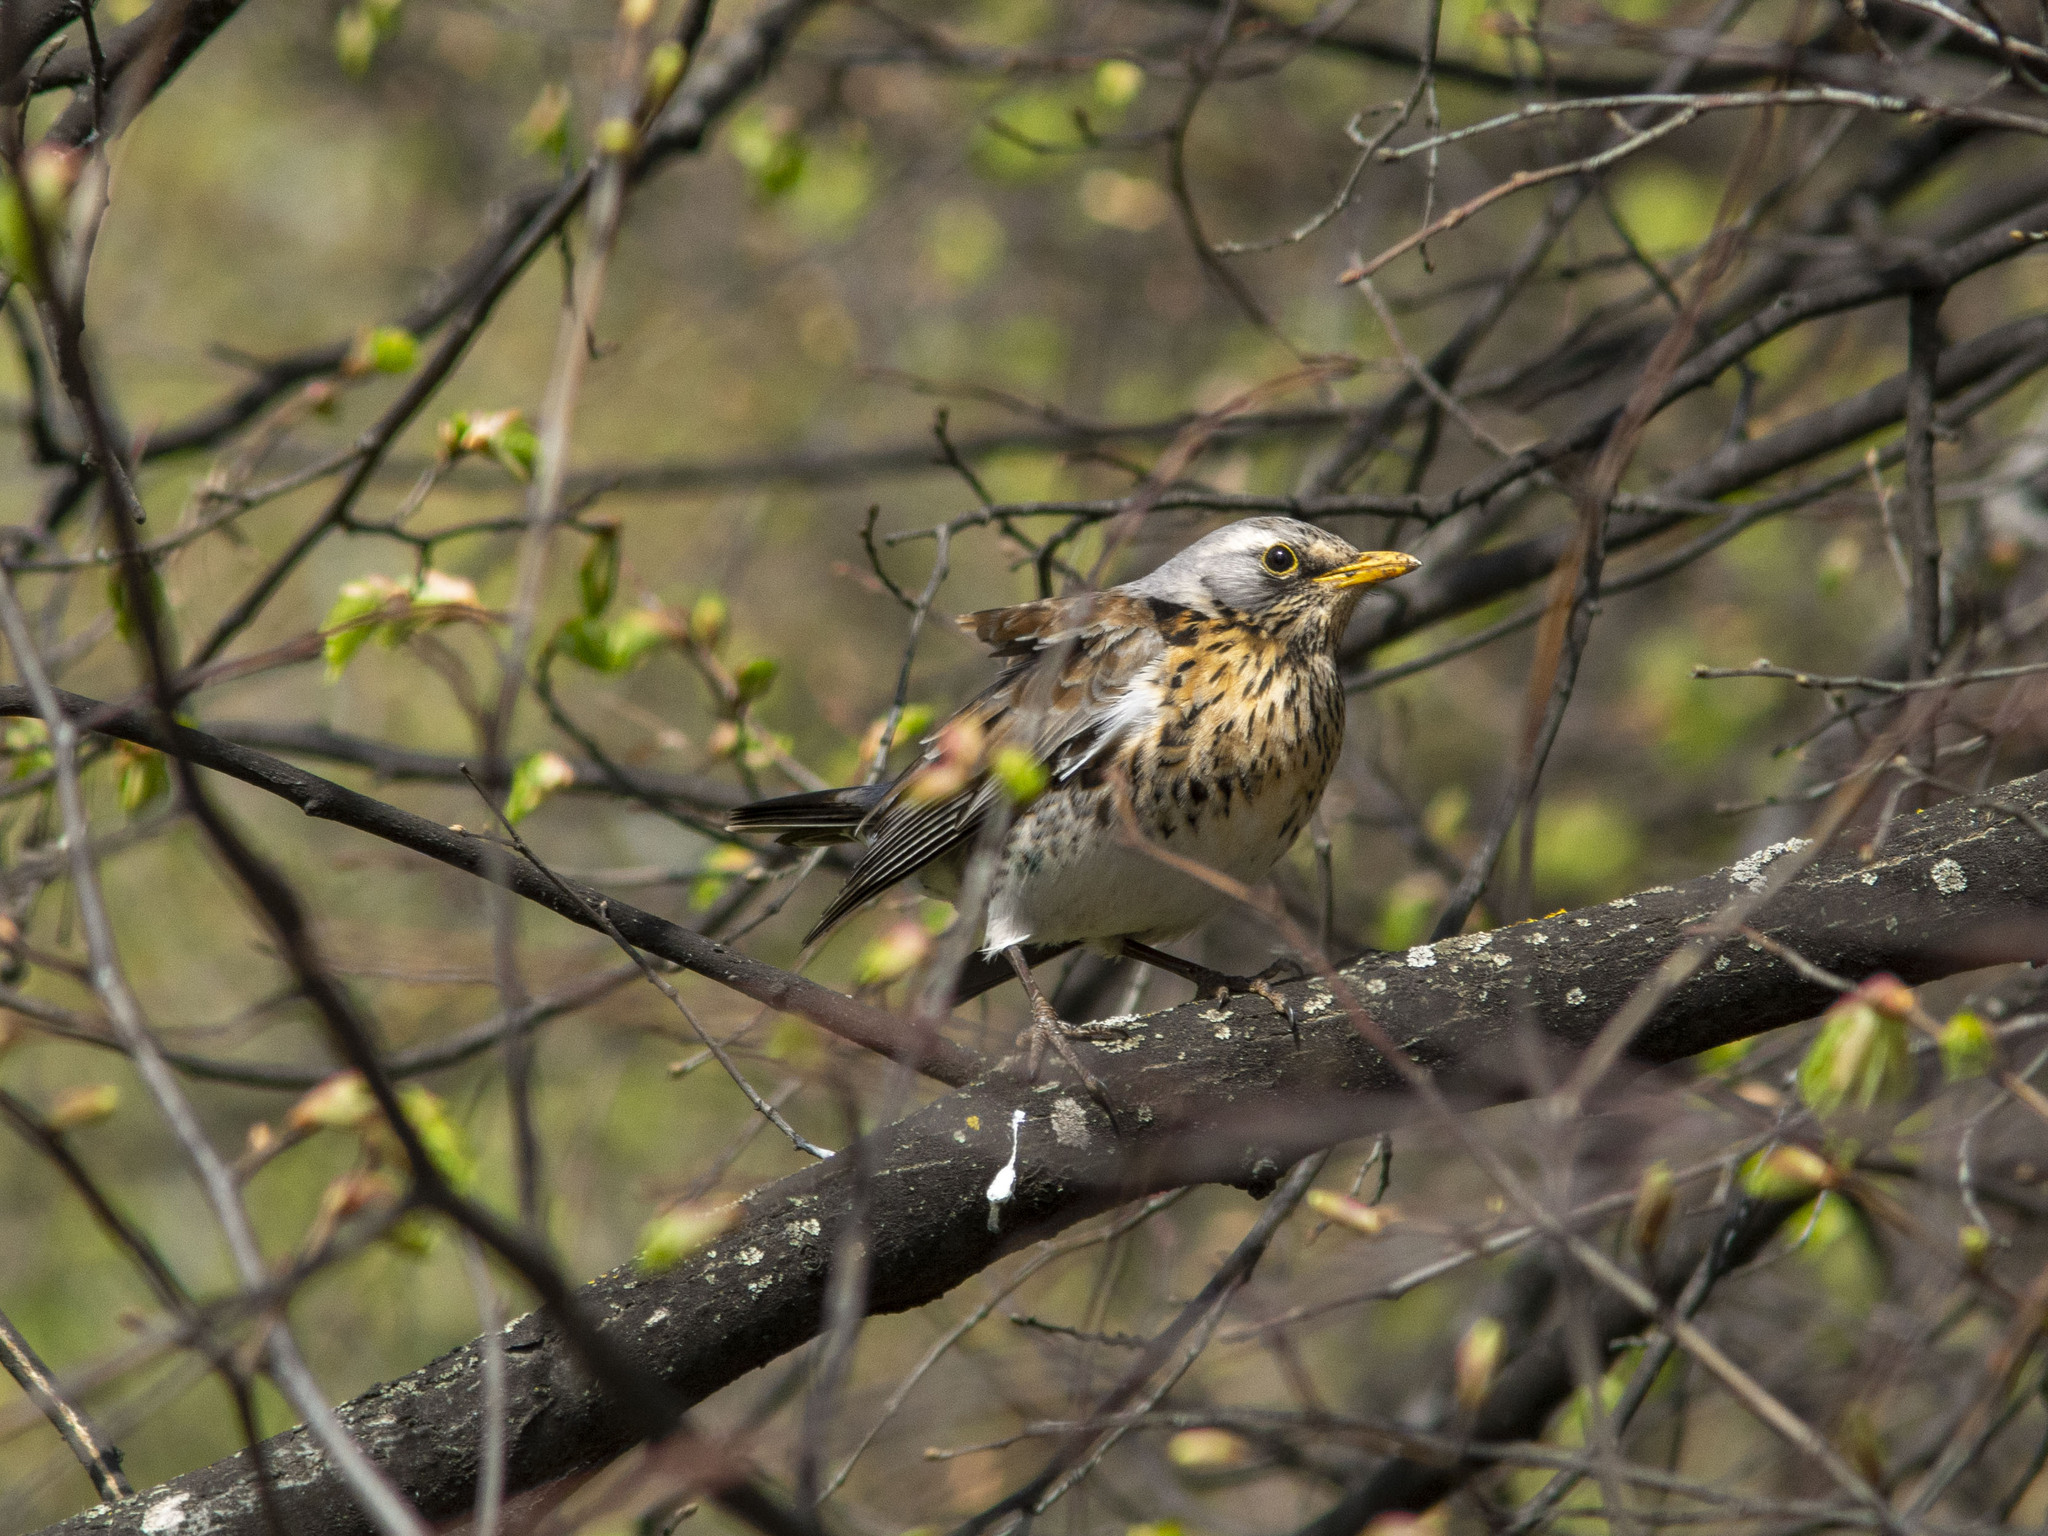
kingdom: Animalia
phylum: Chordata
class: Aves
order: Passeriformes
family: Turdidae
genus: Turdus
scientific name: Turdus pilaris
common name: Fieldfare
